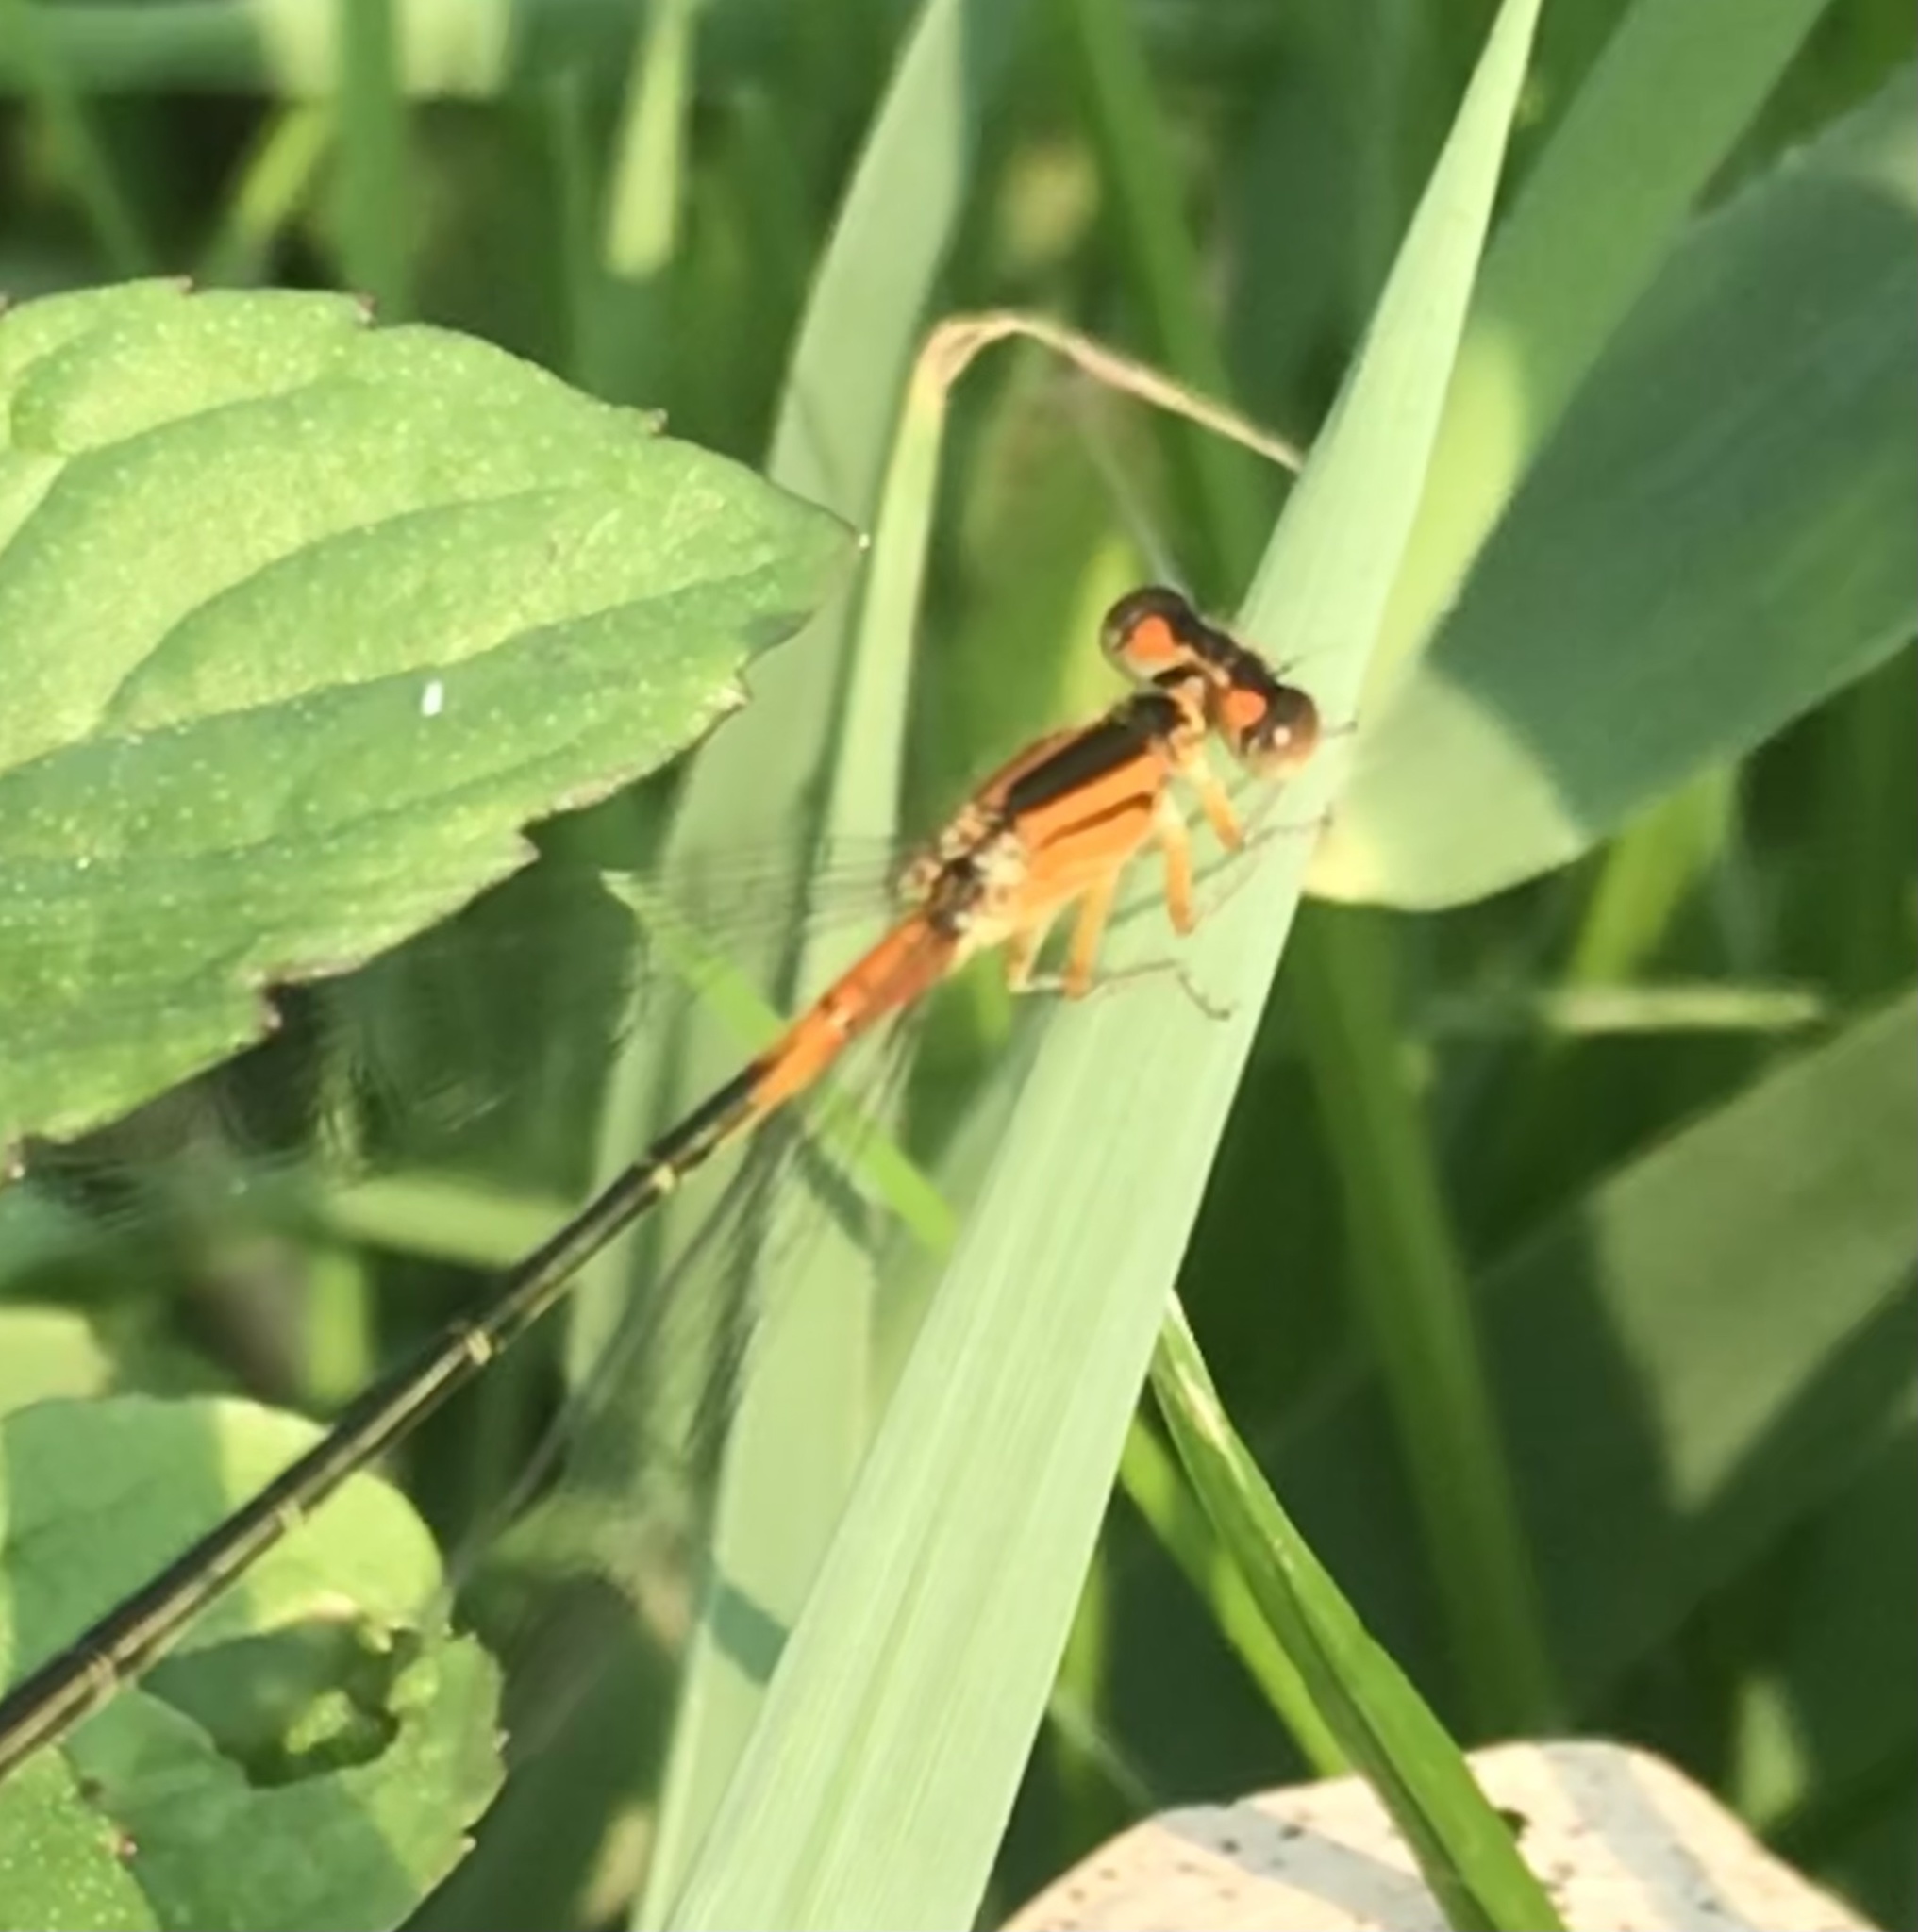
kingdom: Animalia
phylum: Arthropoda
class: Insecta
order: Odonata
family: Coenagrionidae
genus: Ischnura
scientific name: Ischnura verticalis
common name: Eastern forktail
